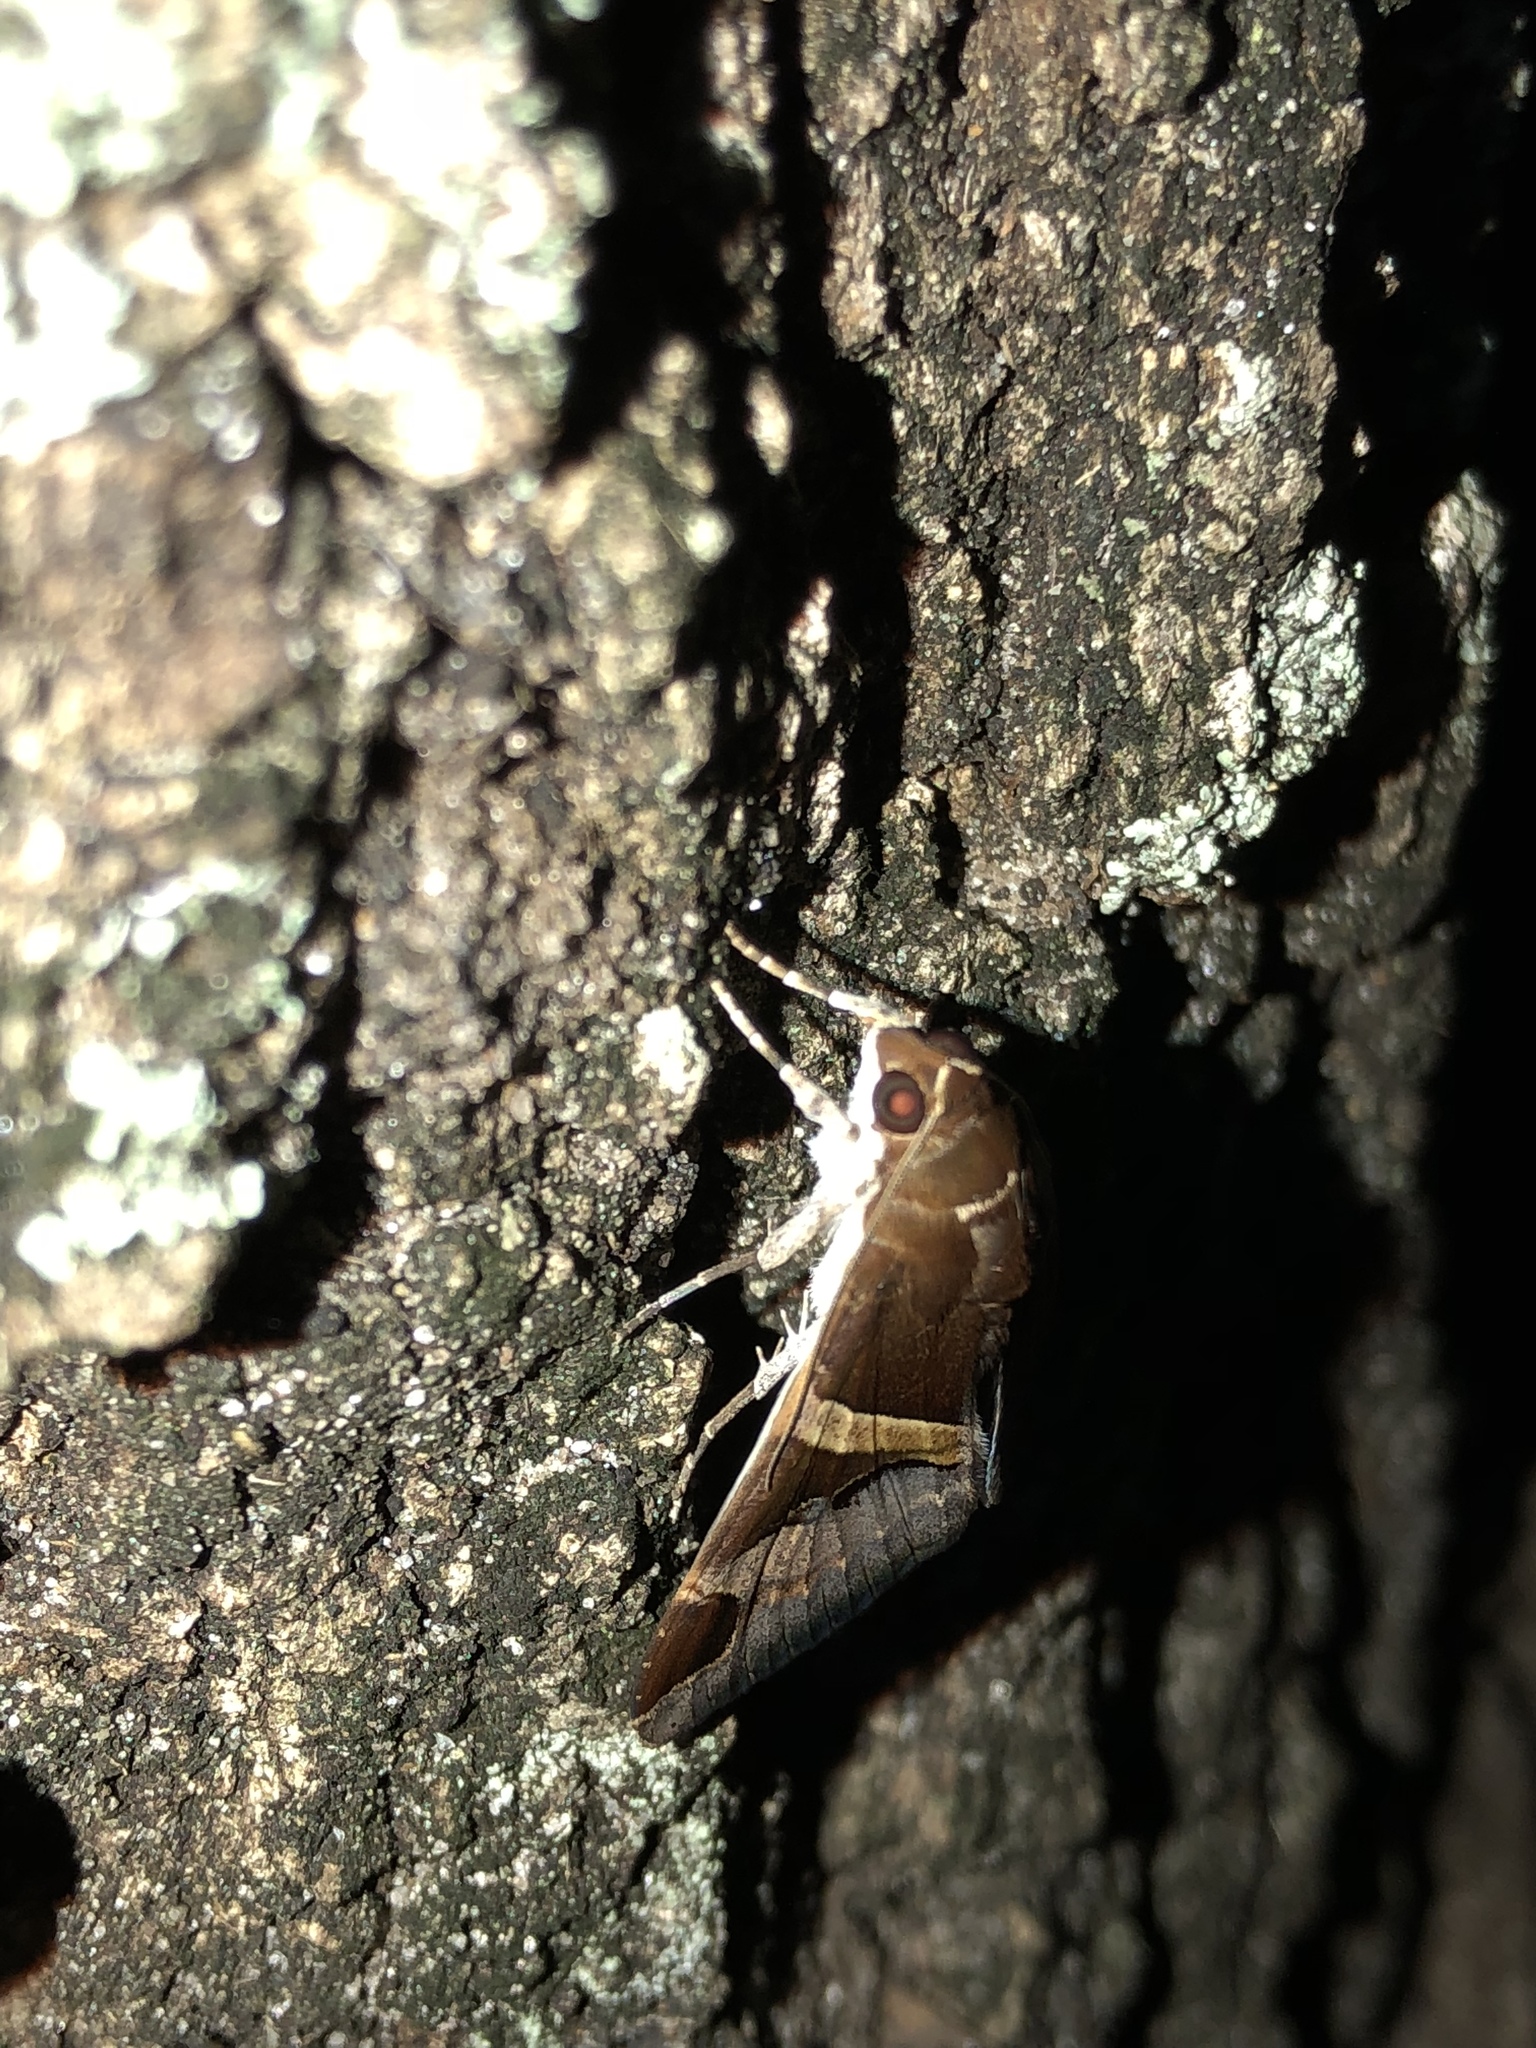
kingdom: Animalia
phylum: Arthropoda
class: Insecta
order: Lepidoptera
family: Erebidae
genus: Melipotis
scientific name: Melipotis fasciolaris
